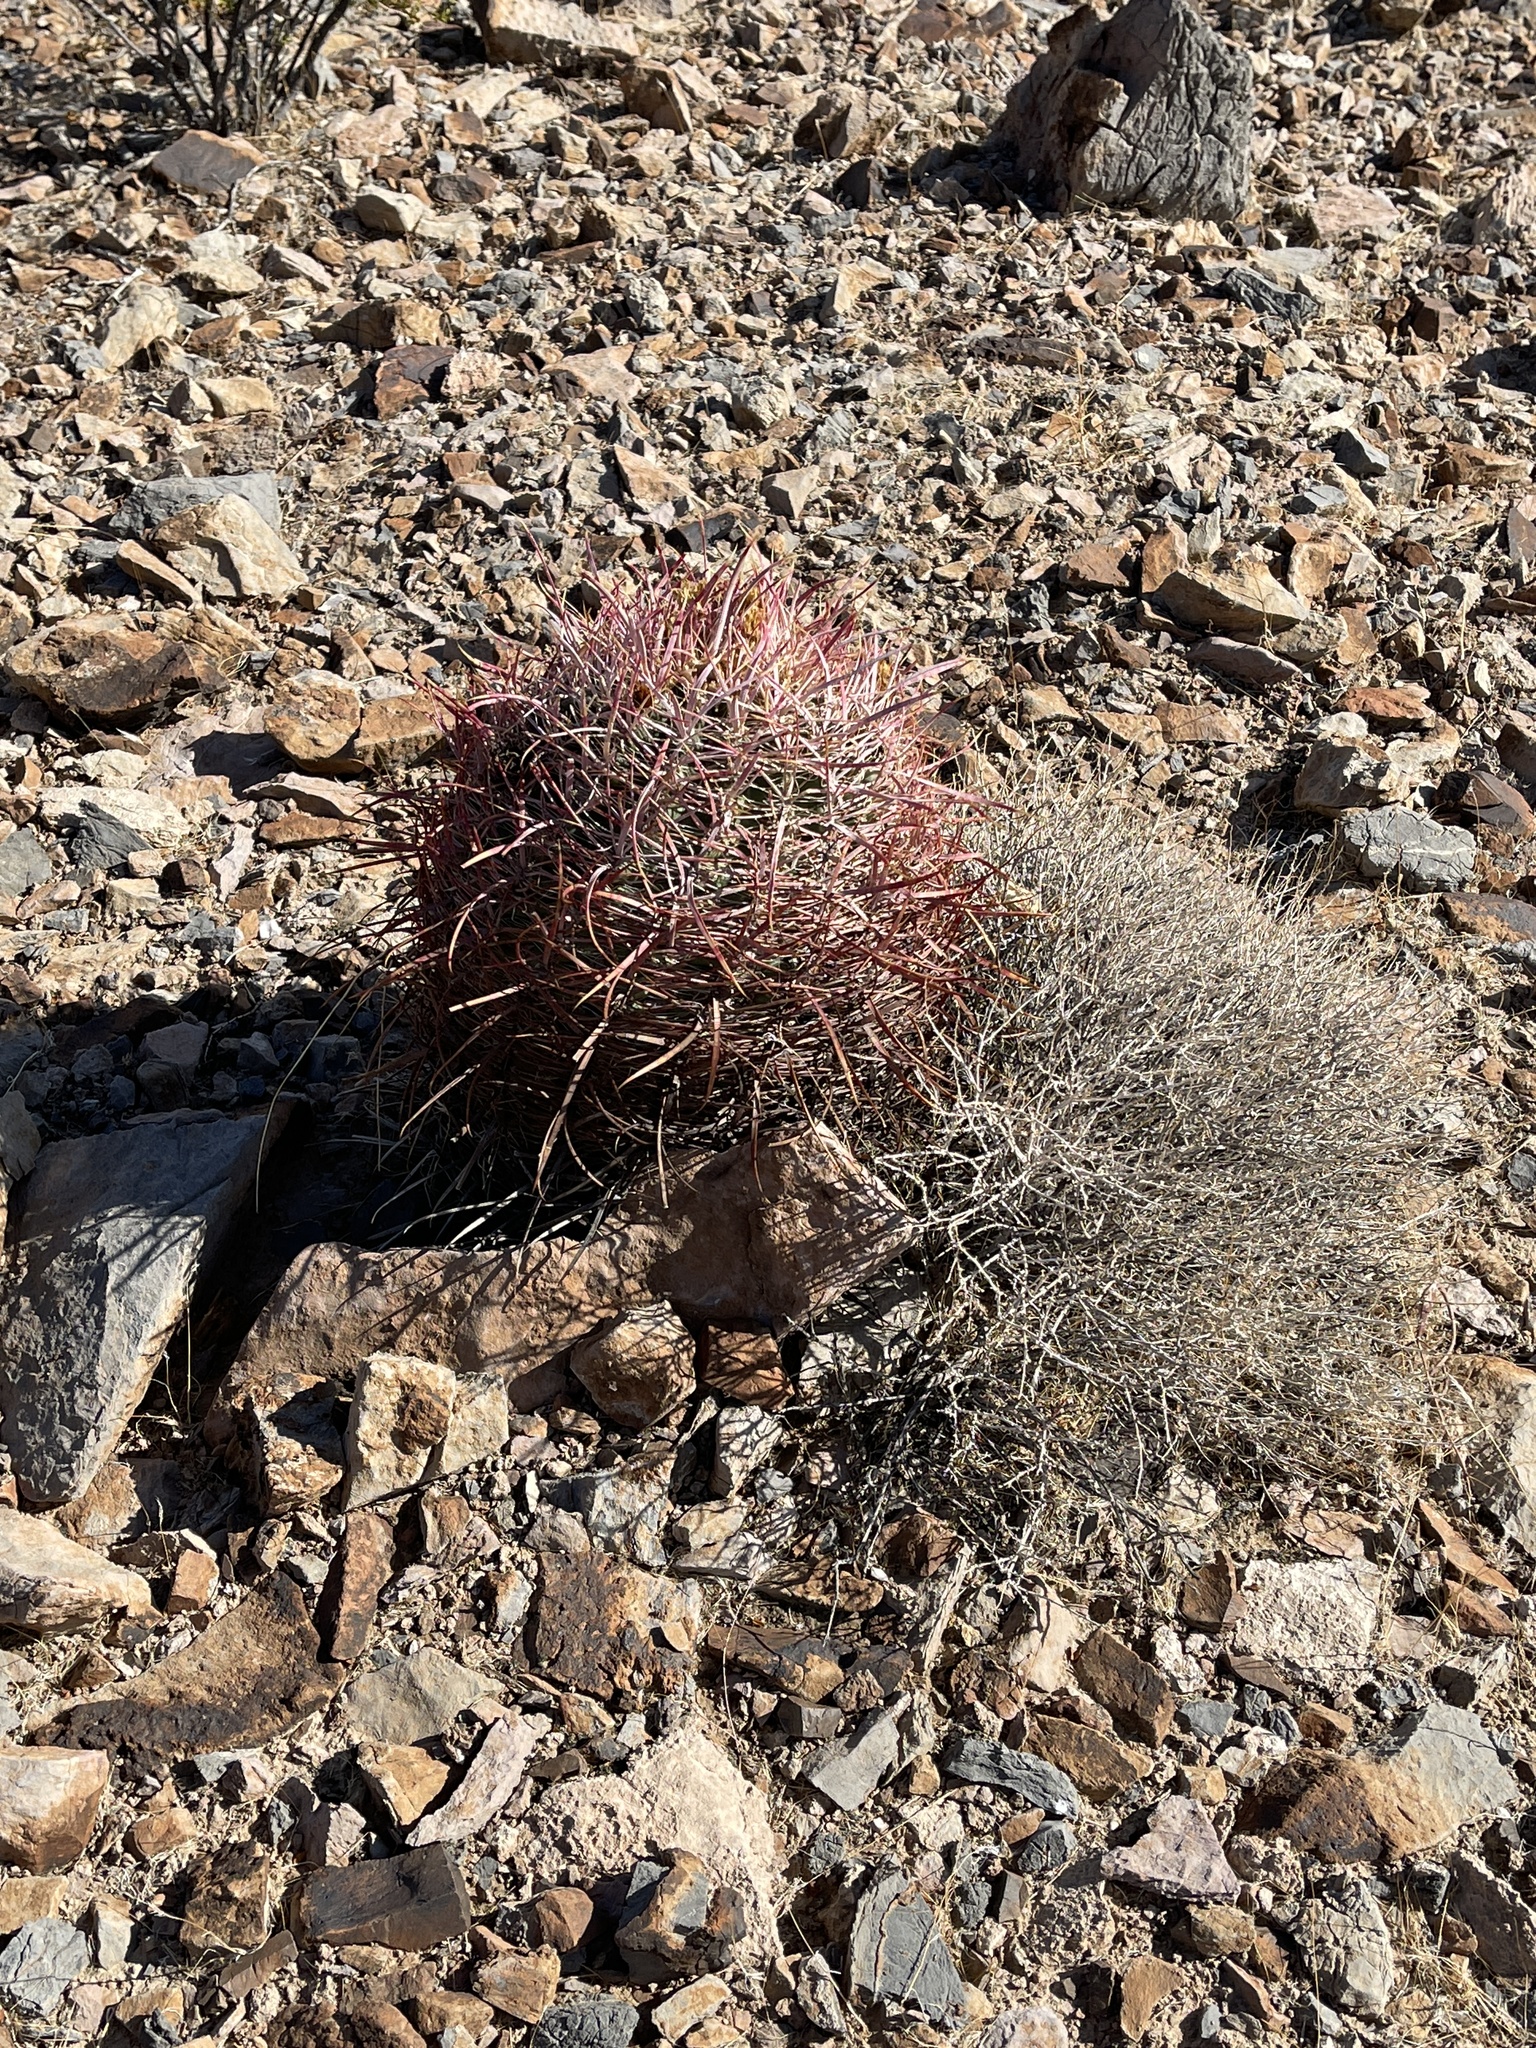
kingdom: Plantae
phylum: Tracheophyta
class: Magnoliopsida
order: Caryophyllales
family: Cactaceae
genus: Ferocactus
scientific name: Ferocactus cylindraceus
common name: California barrel cactus
